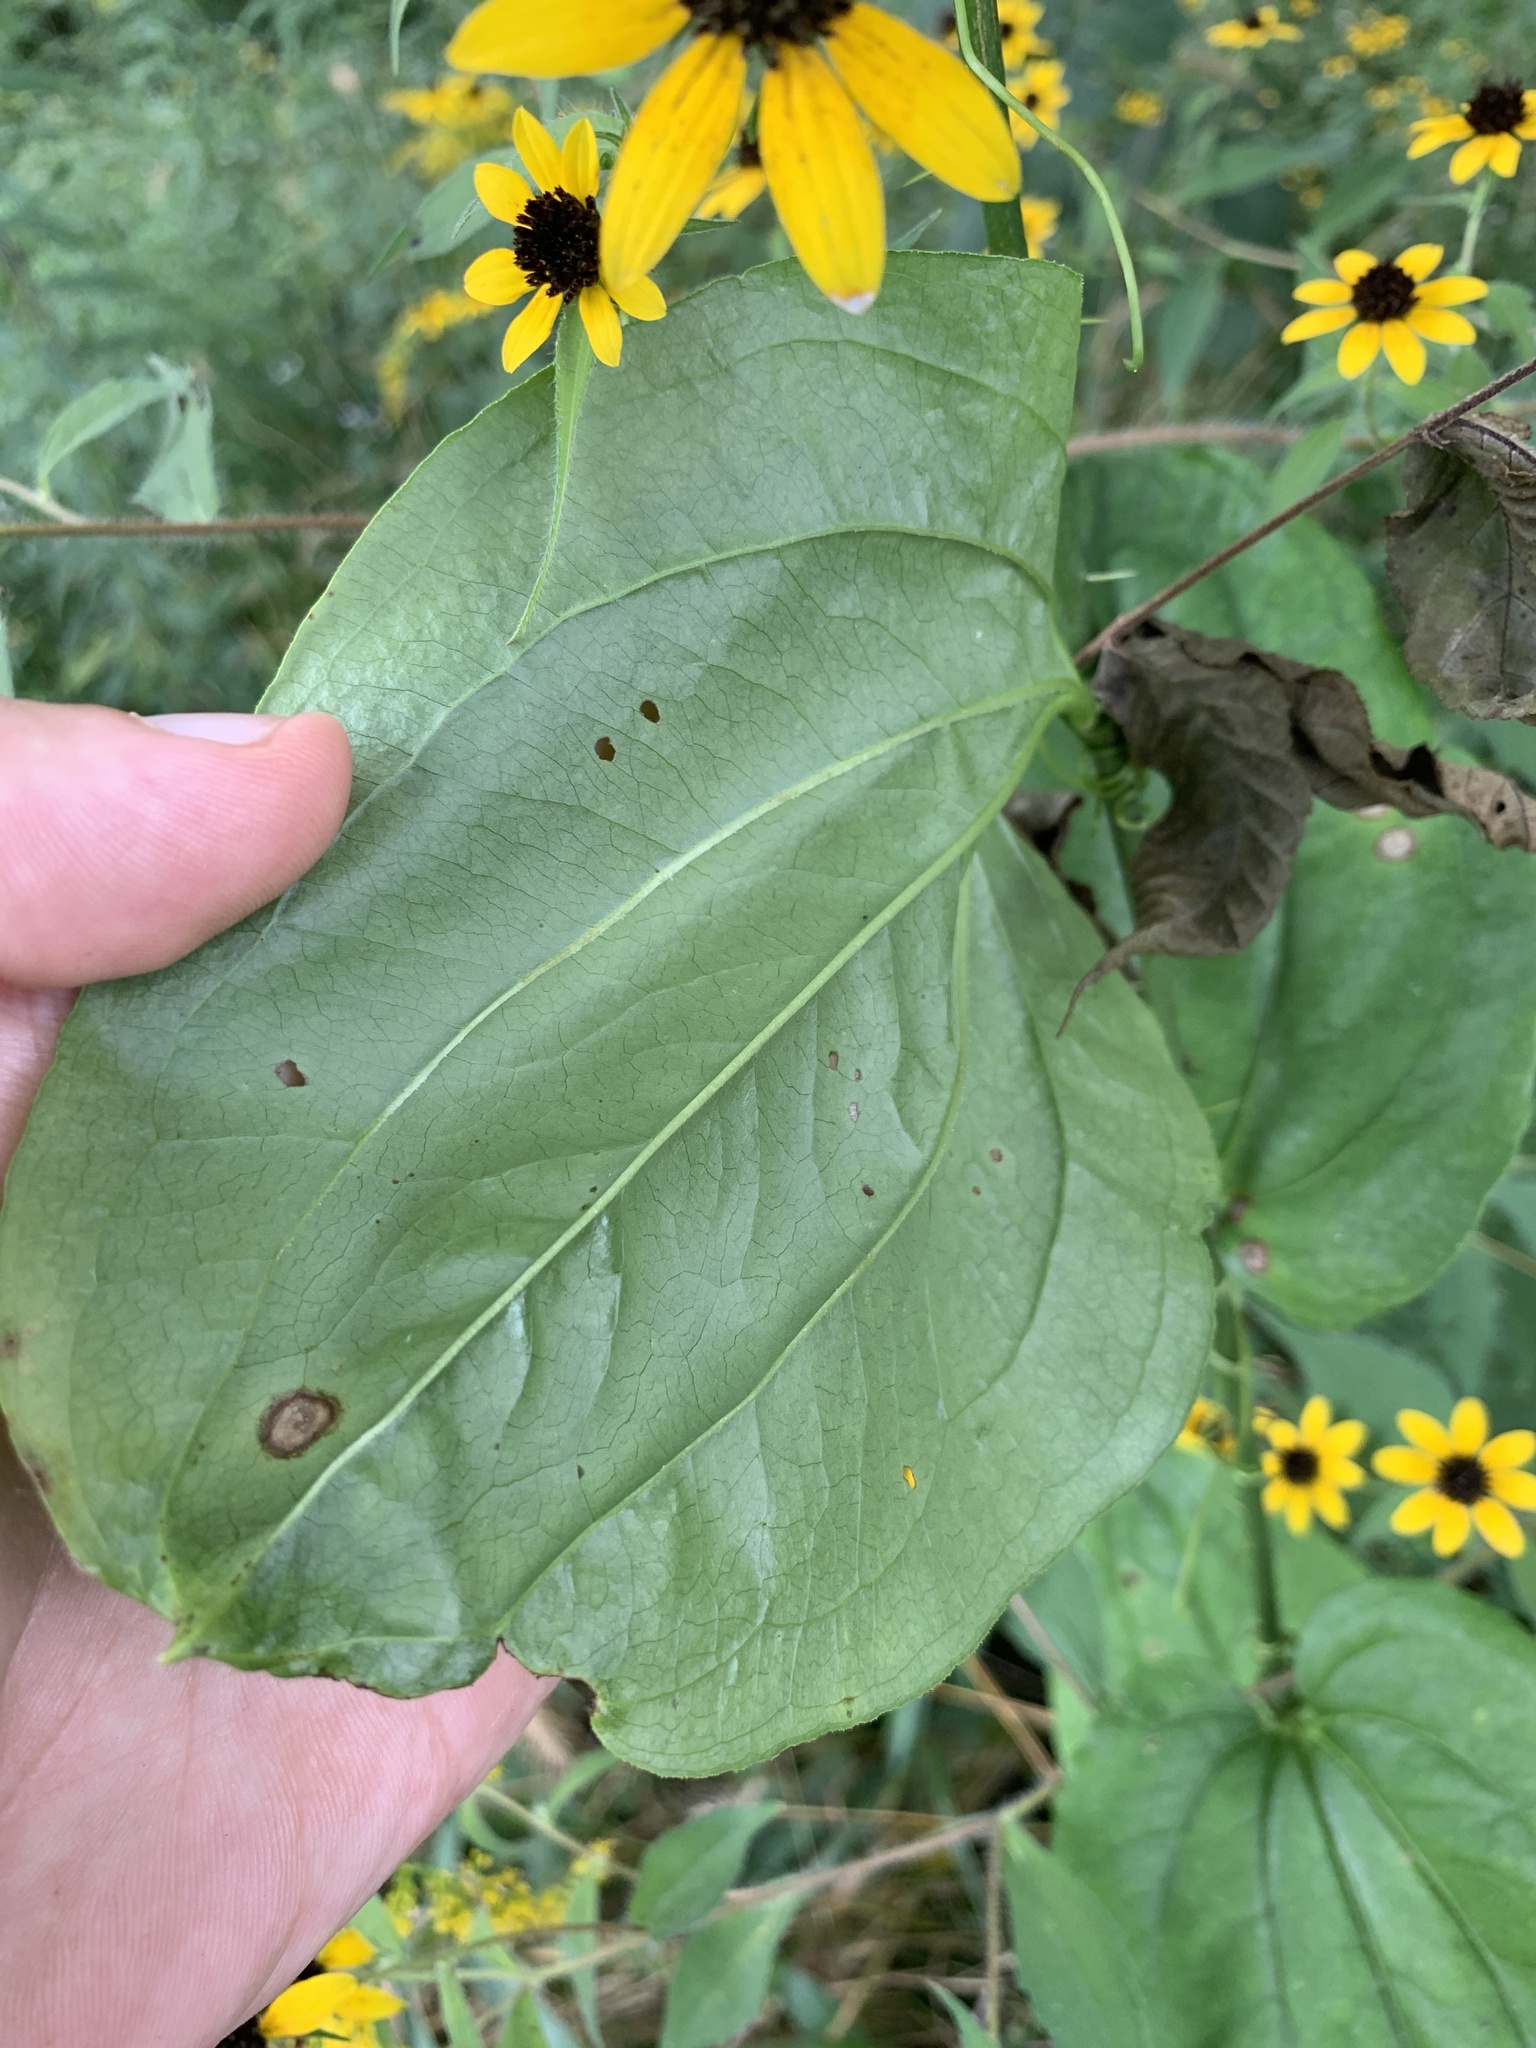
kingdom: Plantae
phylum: Tracheophyta
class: Liliopsida
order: Liliales
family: Smilacaceae
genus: Smilax
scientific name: Smilax tamnoides
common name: Hellfetter
